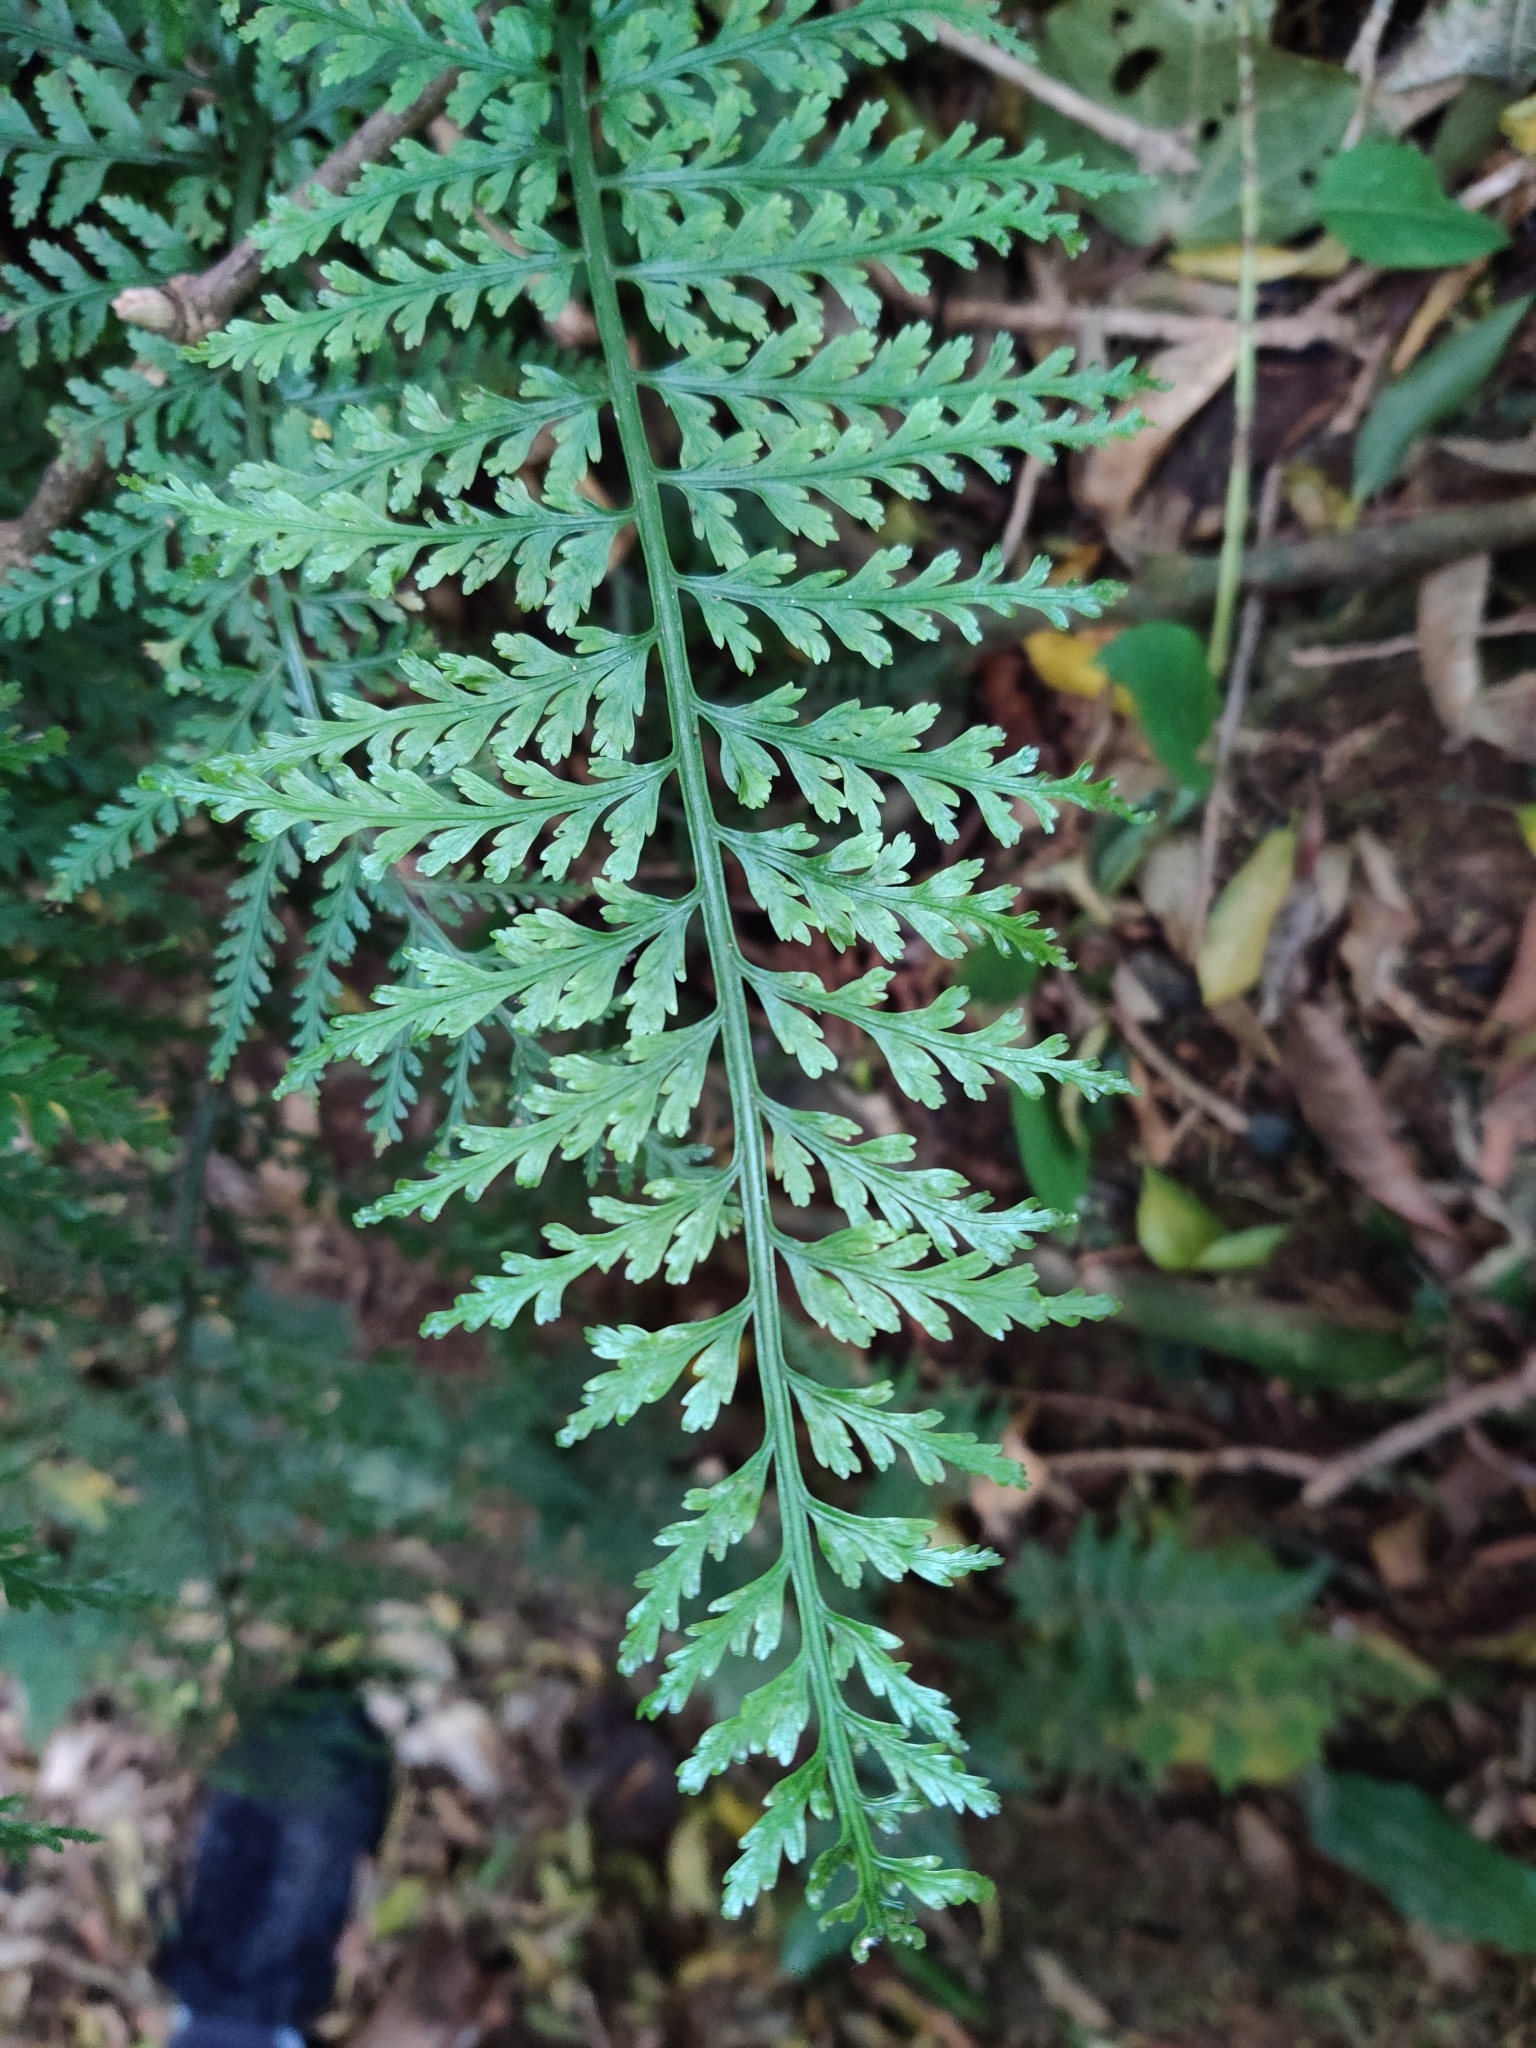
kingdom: Plantae
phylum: Tracheophyta
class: Polypodiopsida
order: Polypodiales
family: Aspleniaceae
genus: Asplenium
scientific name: Asplenium bulbiferum
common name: Mother fern
